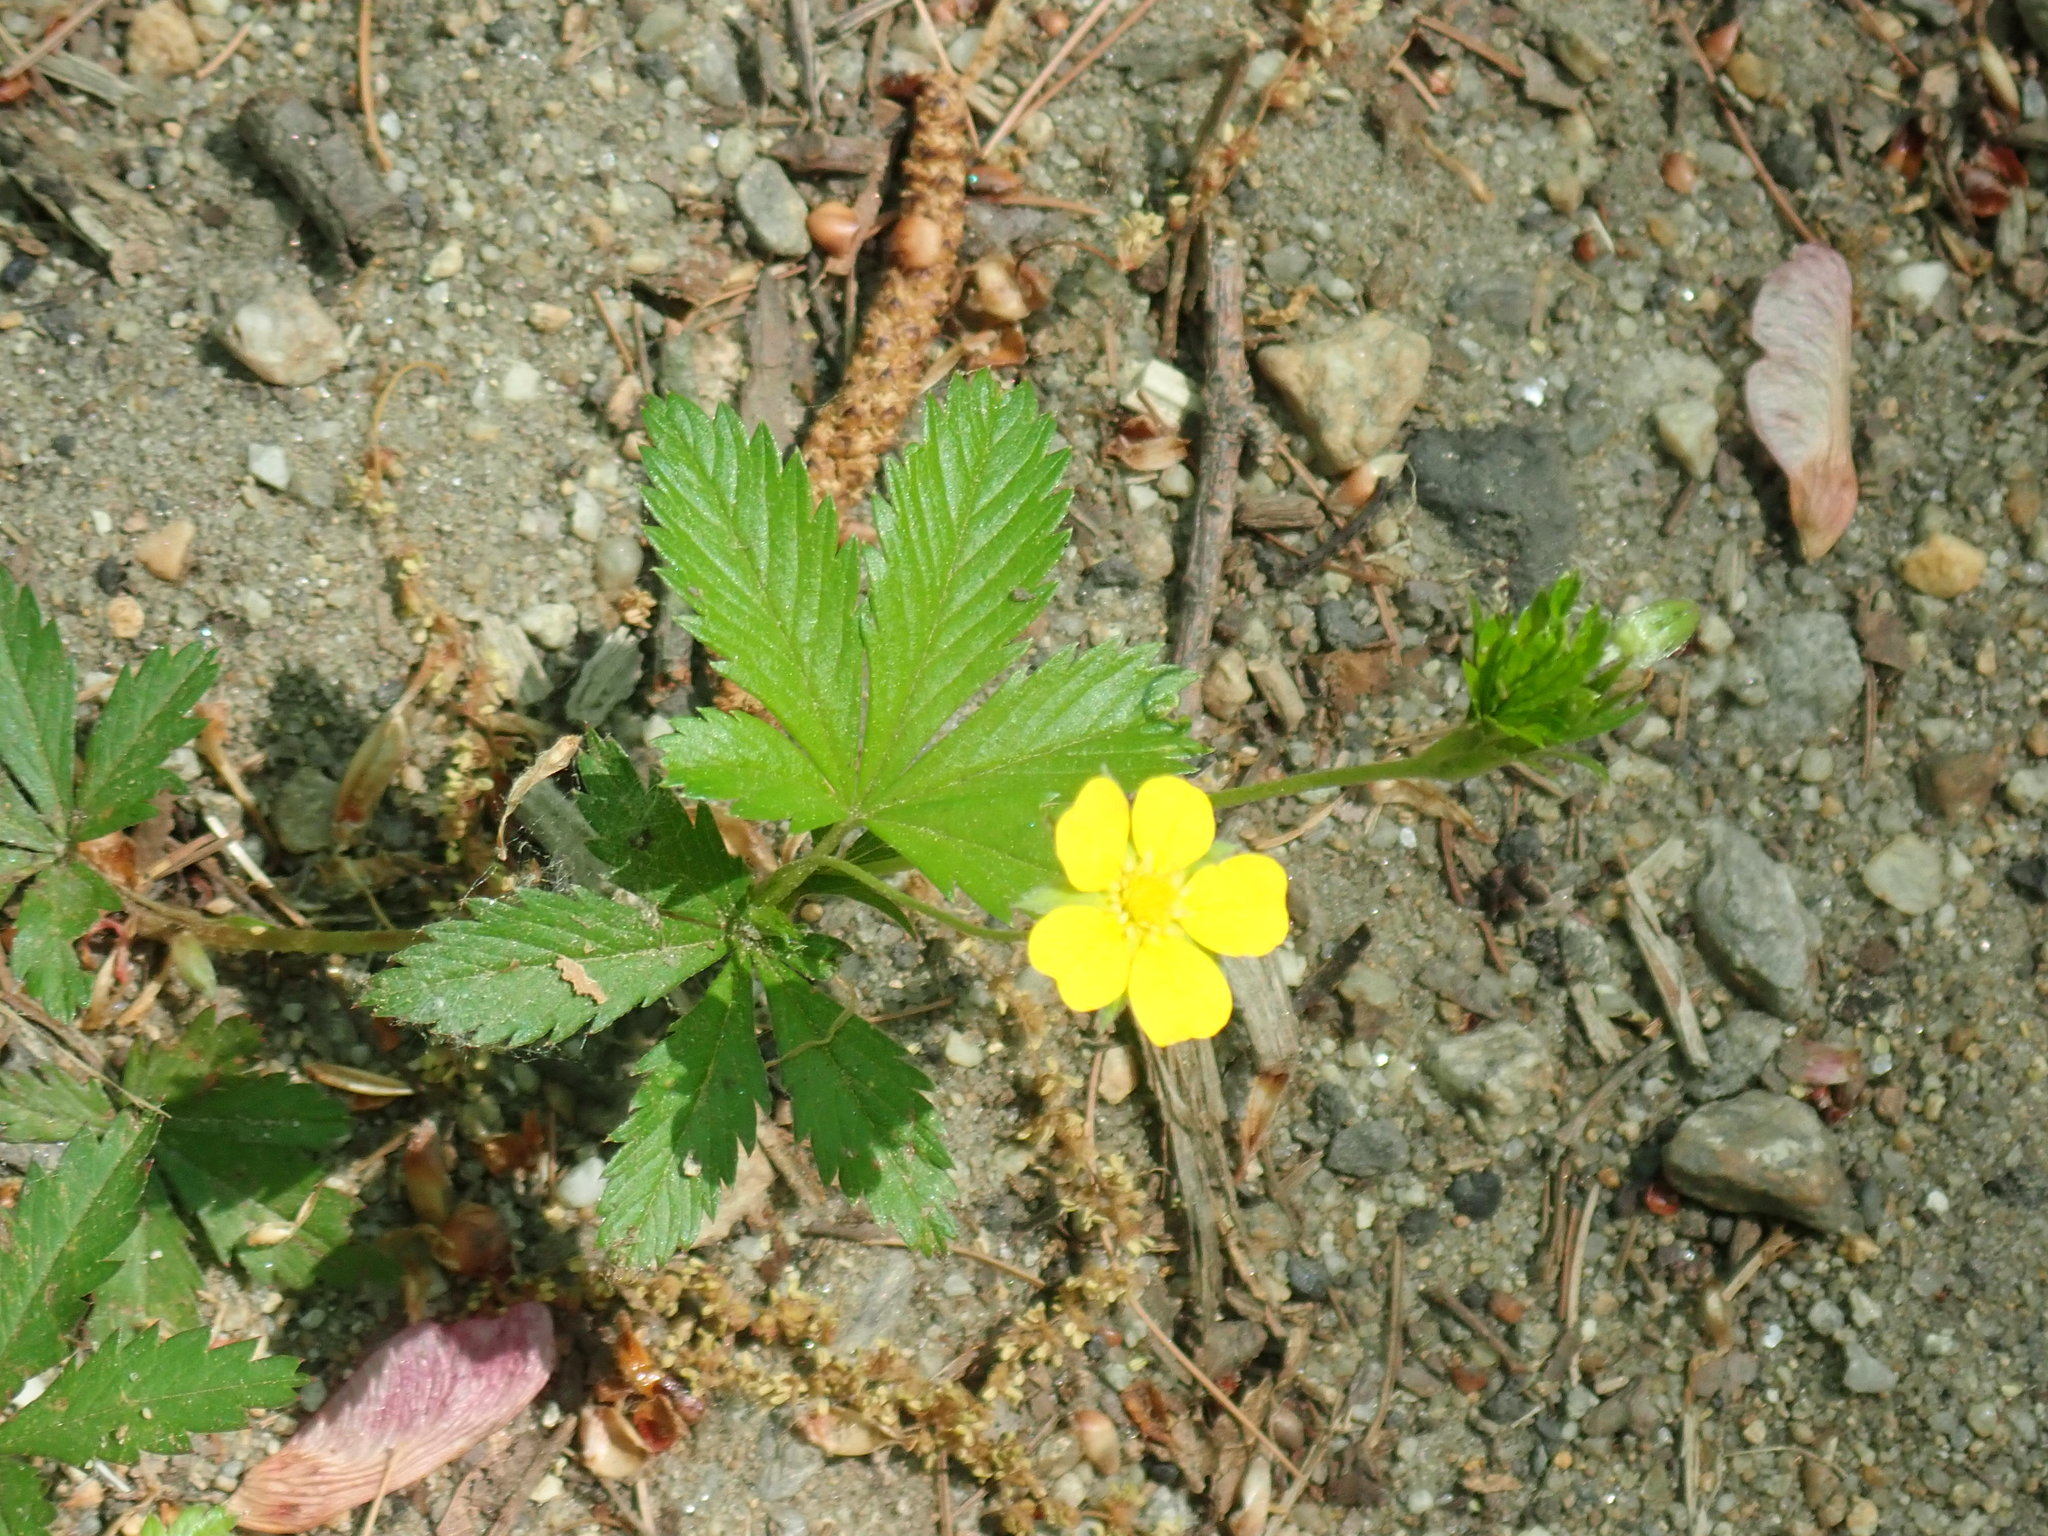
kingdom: Plantae
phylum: Tracheophyta
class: Magnoliopsida
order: Rosales
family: Rosaceae
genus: Potentilla
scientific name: Potentilla simplex
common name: Old field cinquefoil
